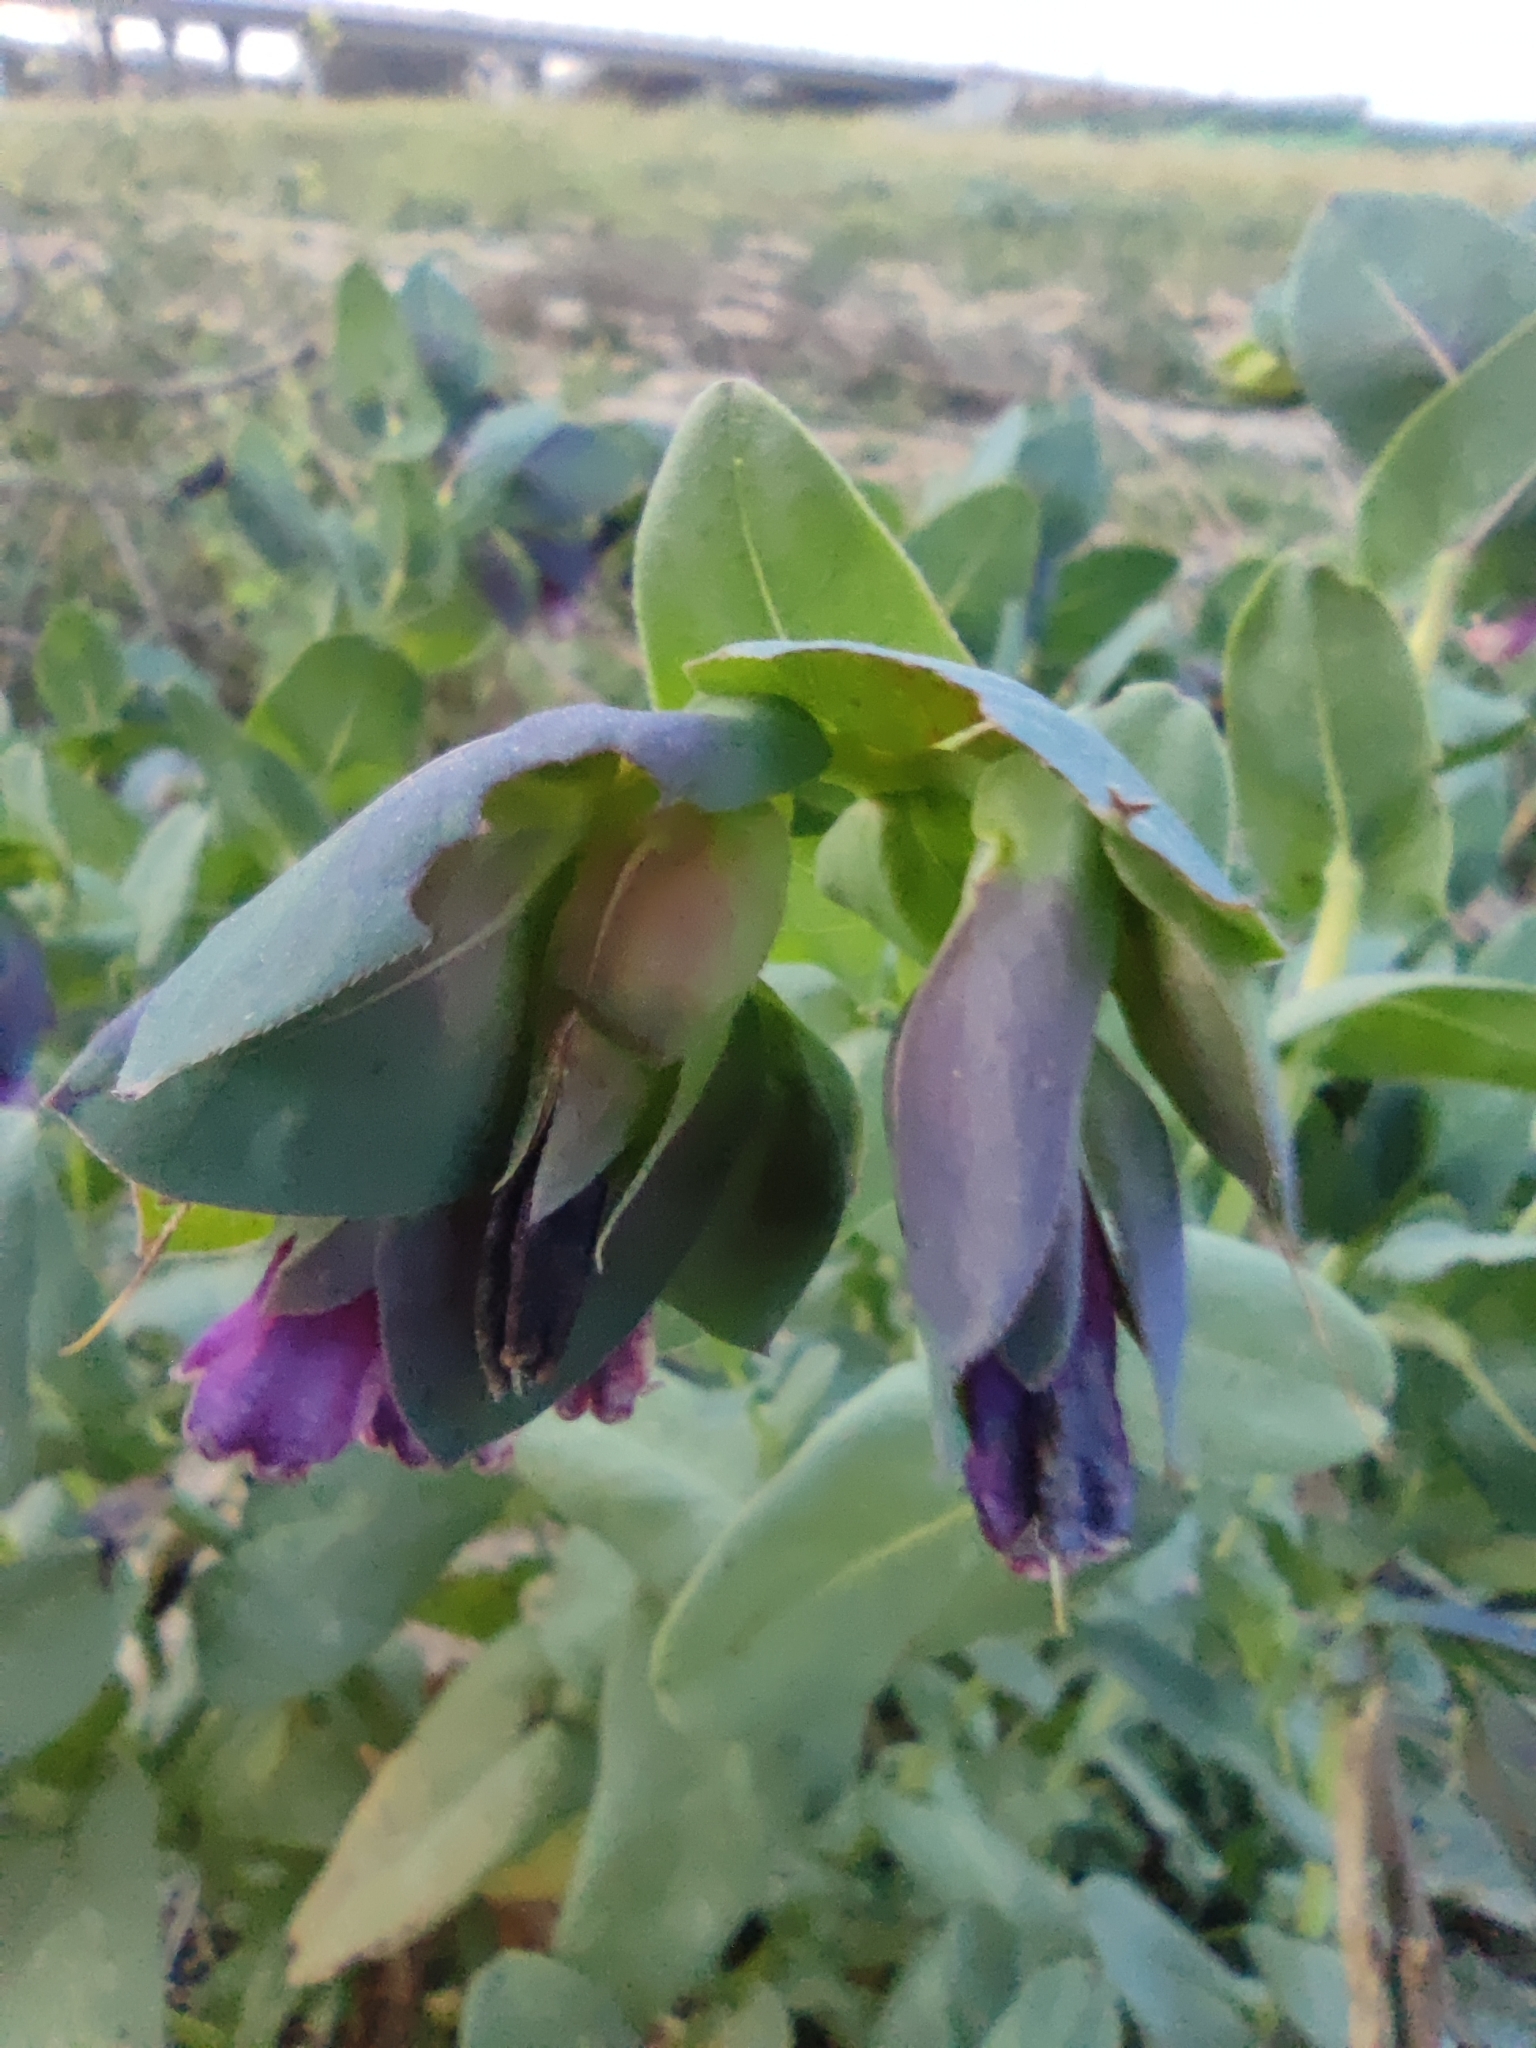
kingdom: Plantae
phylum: Tracheophyta
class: Magnoliopsida
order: Boraginales
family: Boraginaceae
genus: Cerinthe
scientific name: Cerinthe major
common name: Greater honeywort
